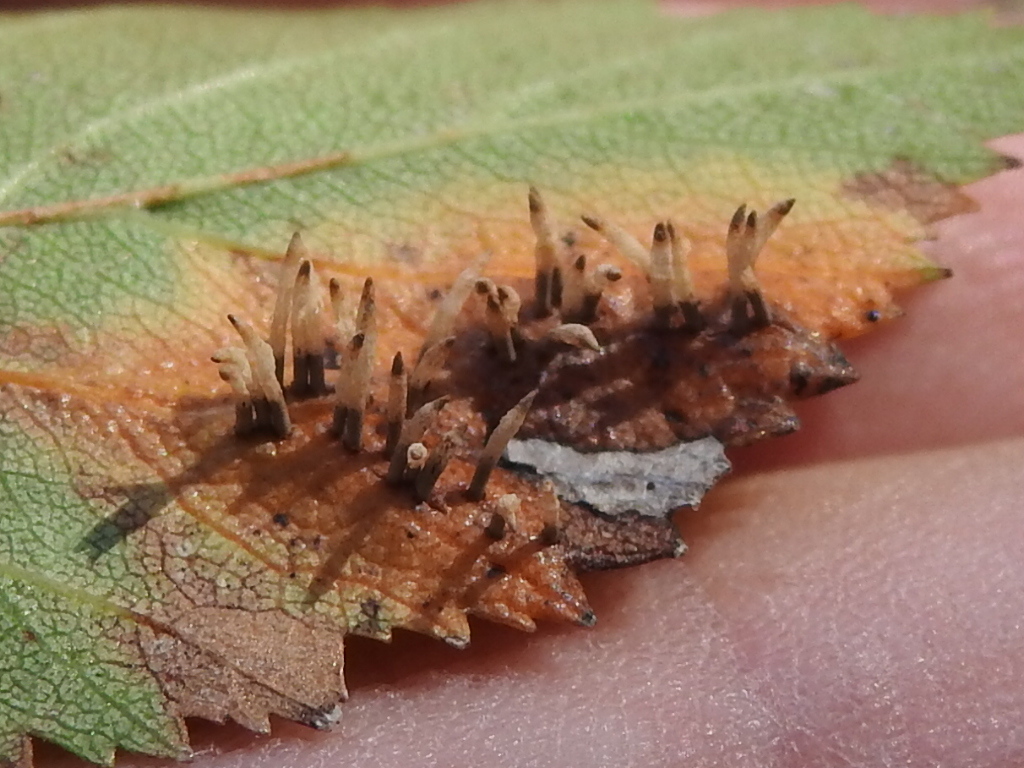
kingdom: Fungi
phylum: Basidiomycota
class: Pucciniomycetes
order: Pucciniales
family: Gymnosporangiaceae
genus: Gymnosporangium
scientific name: Gymnosporangium sabinae
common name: Pear trellis rust fungus
